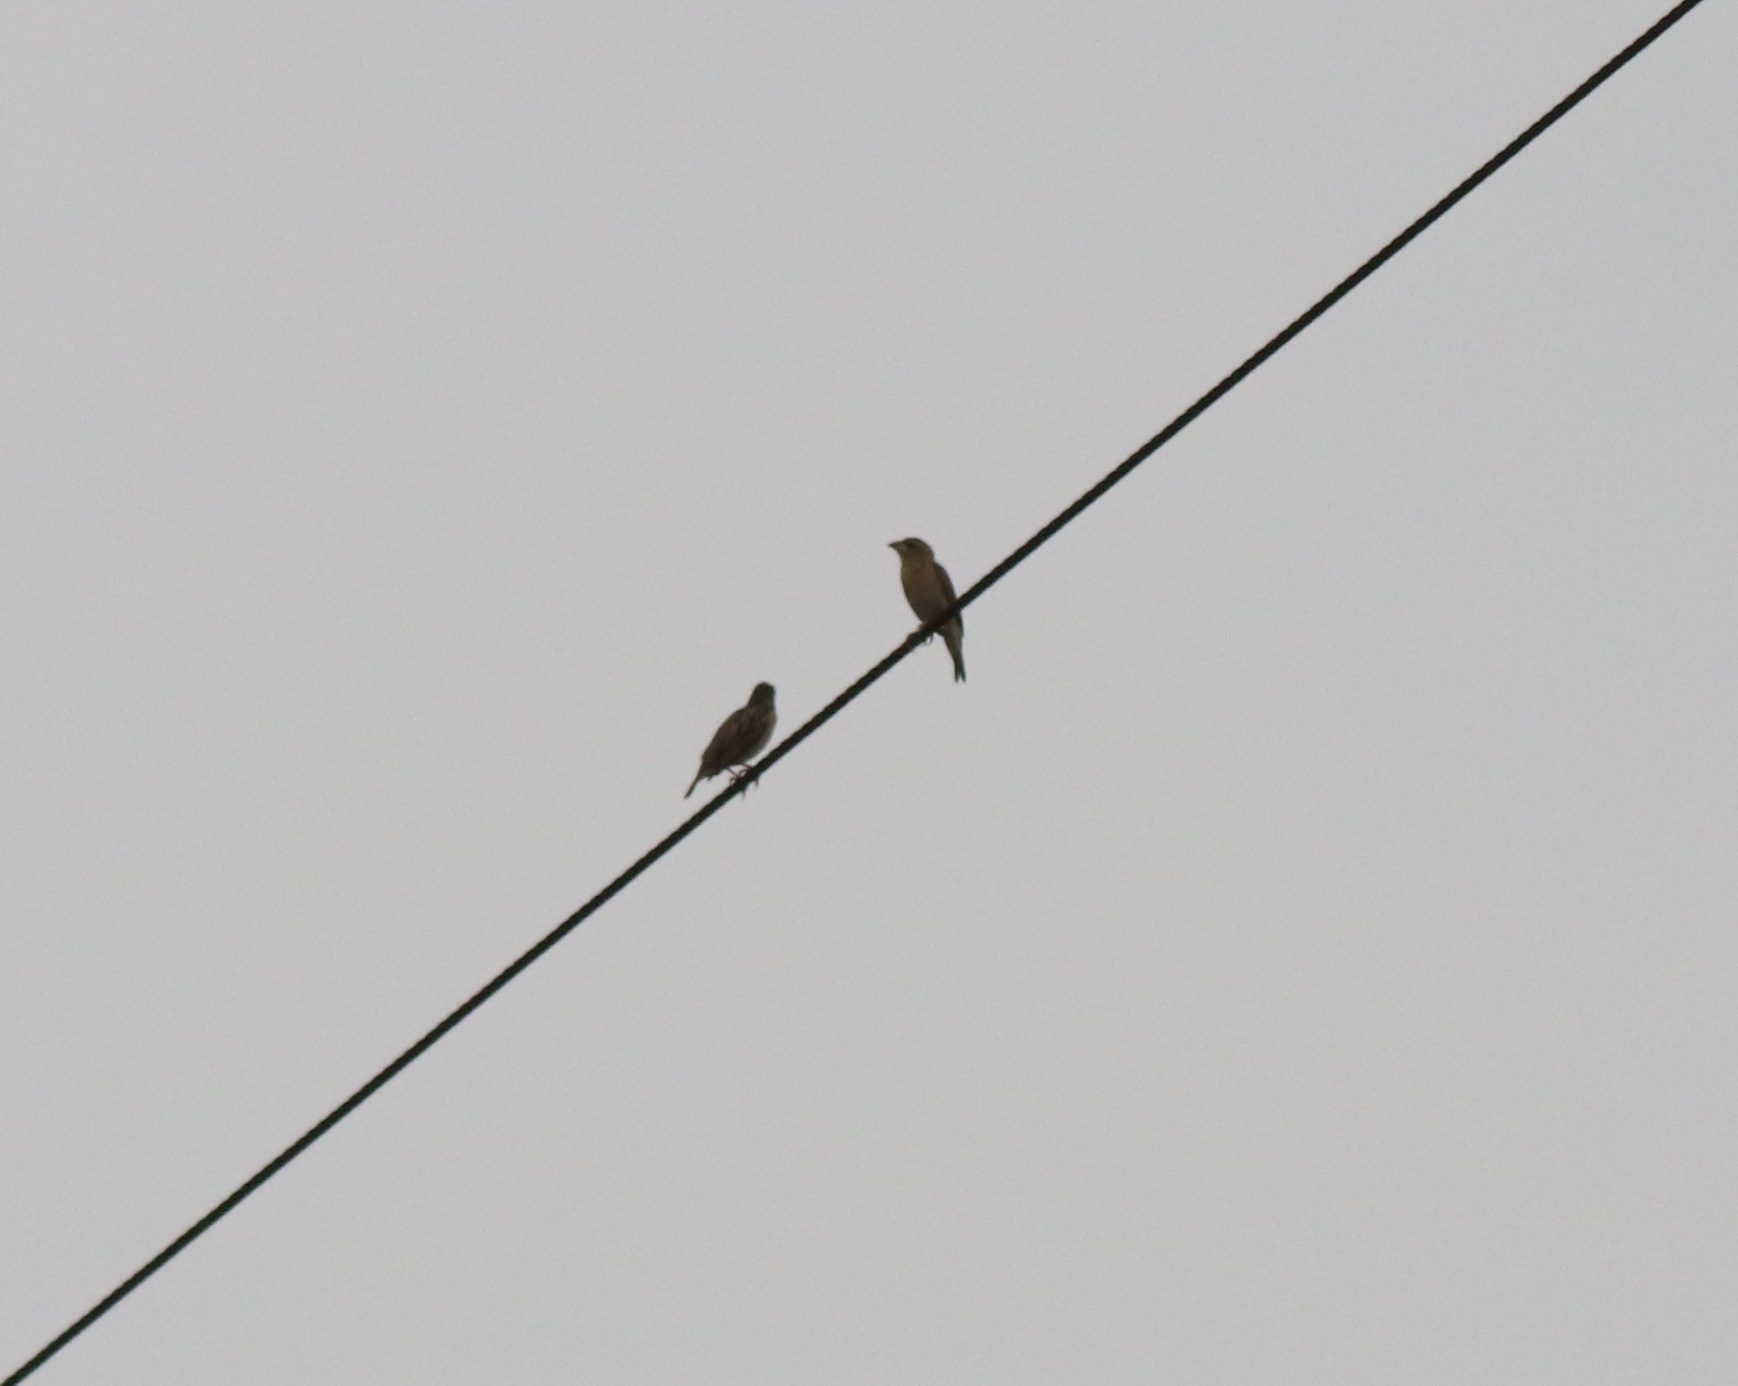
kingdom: Animalia
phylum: Chordata
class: Aves
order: Passeriformes
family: Ploceidae
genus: Ploceus
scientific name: Ploceus philippinus
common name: Baya weaver
